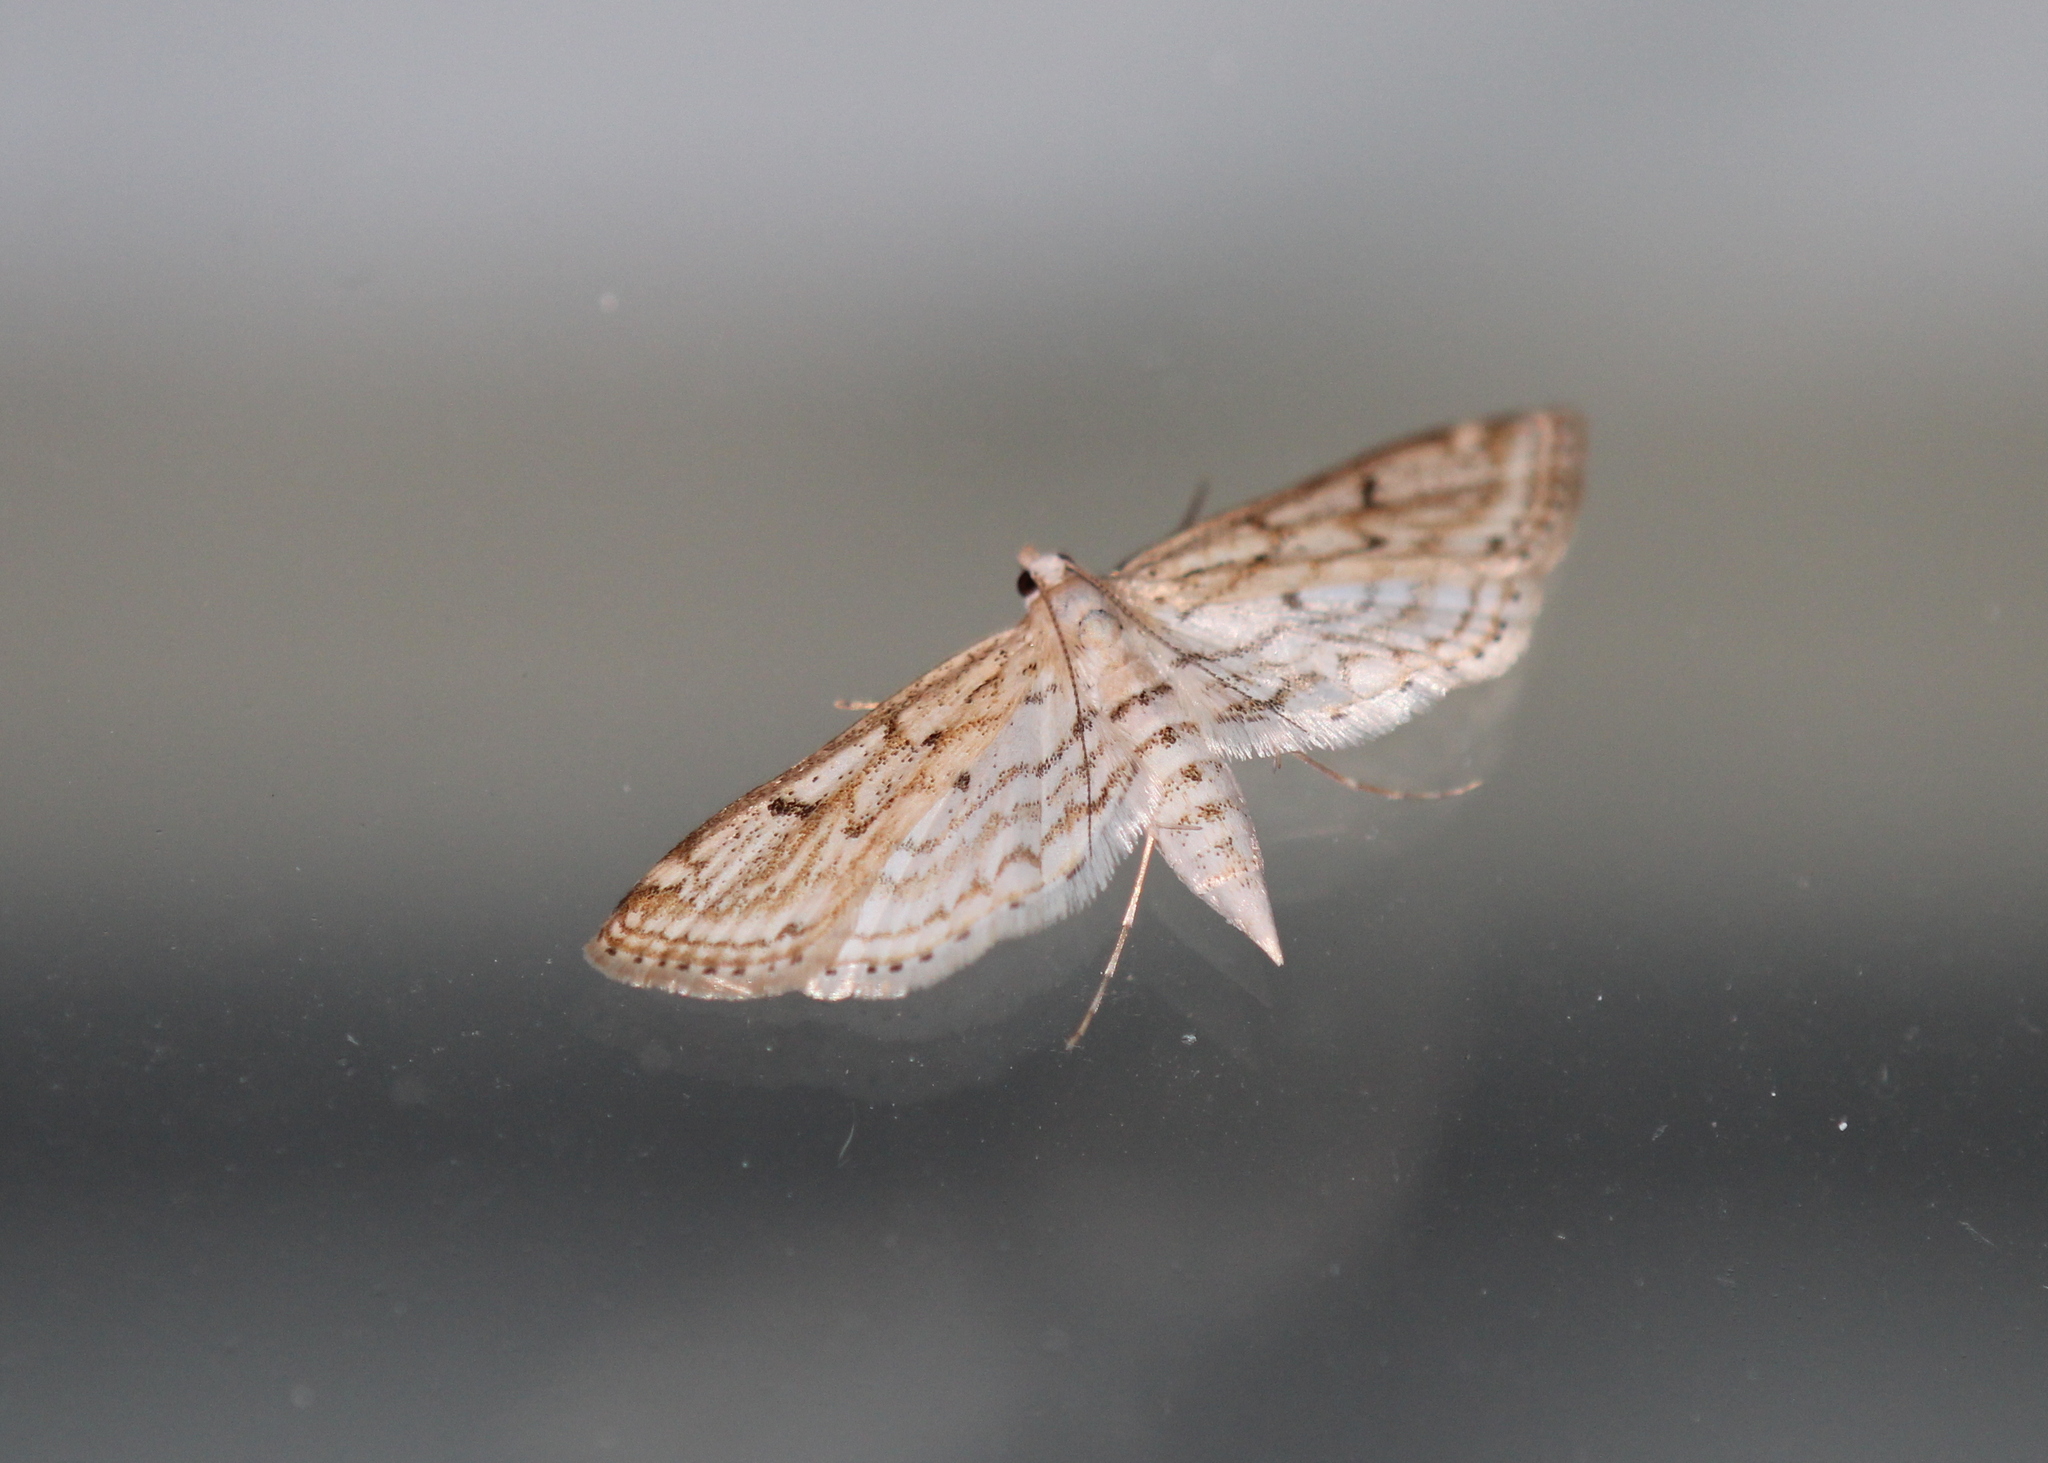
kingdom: Animalia
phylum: Arthropoda
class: Insecta
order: Lepidoptera
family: Crambidae
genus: Parapoynx
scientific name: Parapoynx allionealis
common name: Bladderwort casemaker
